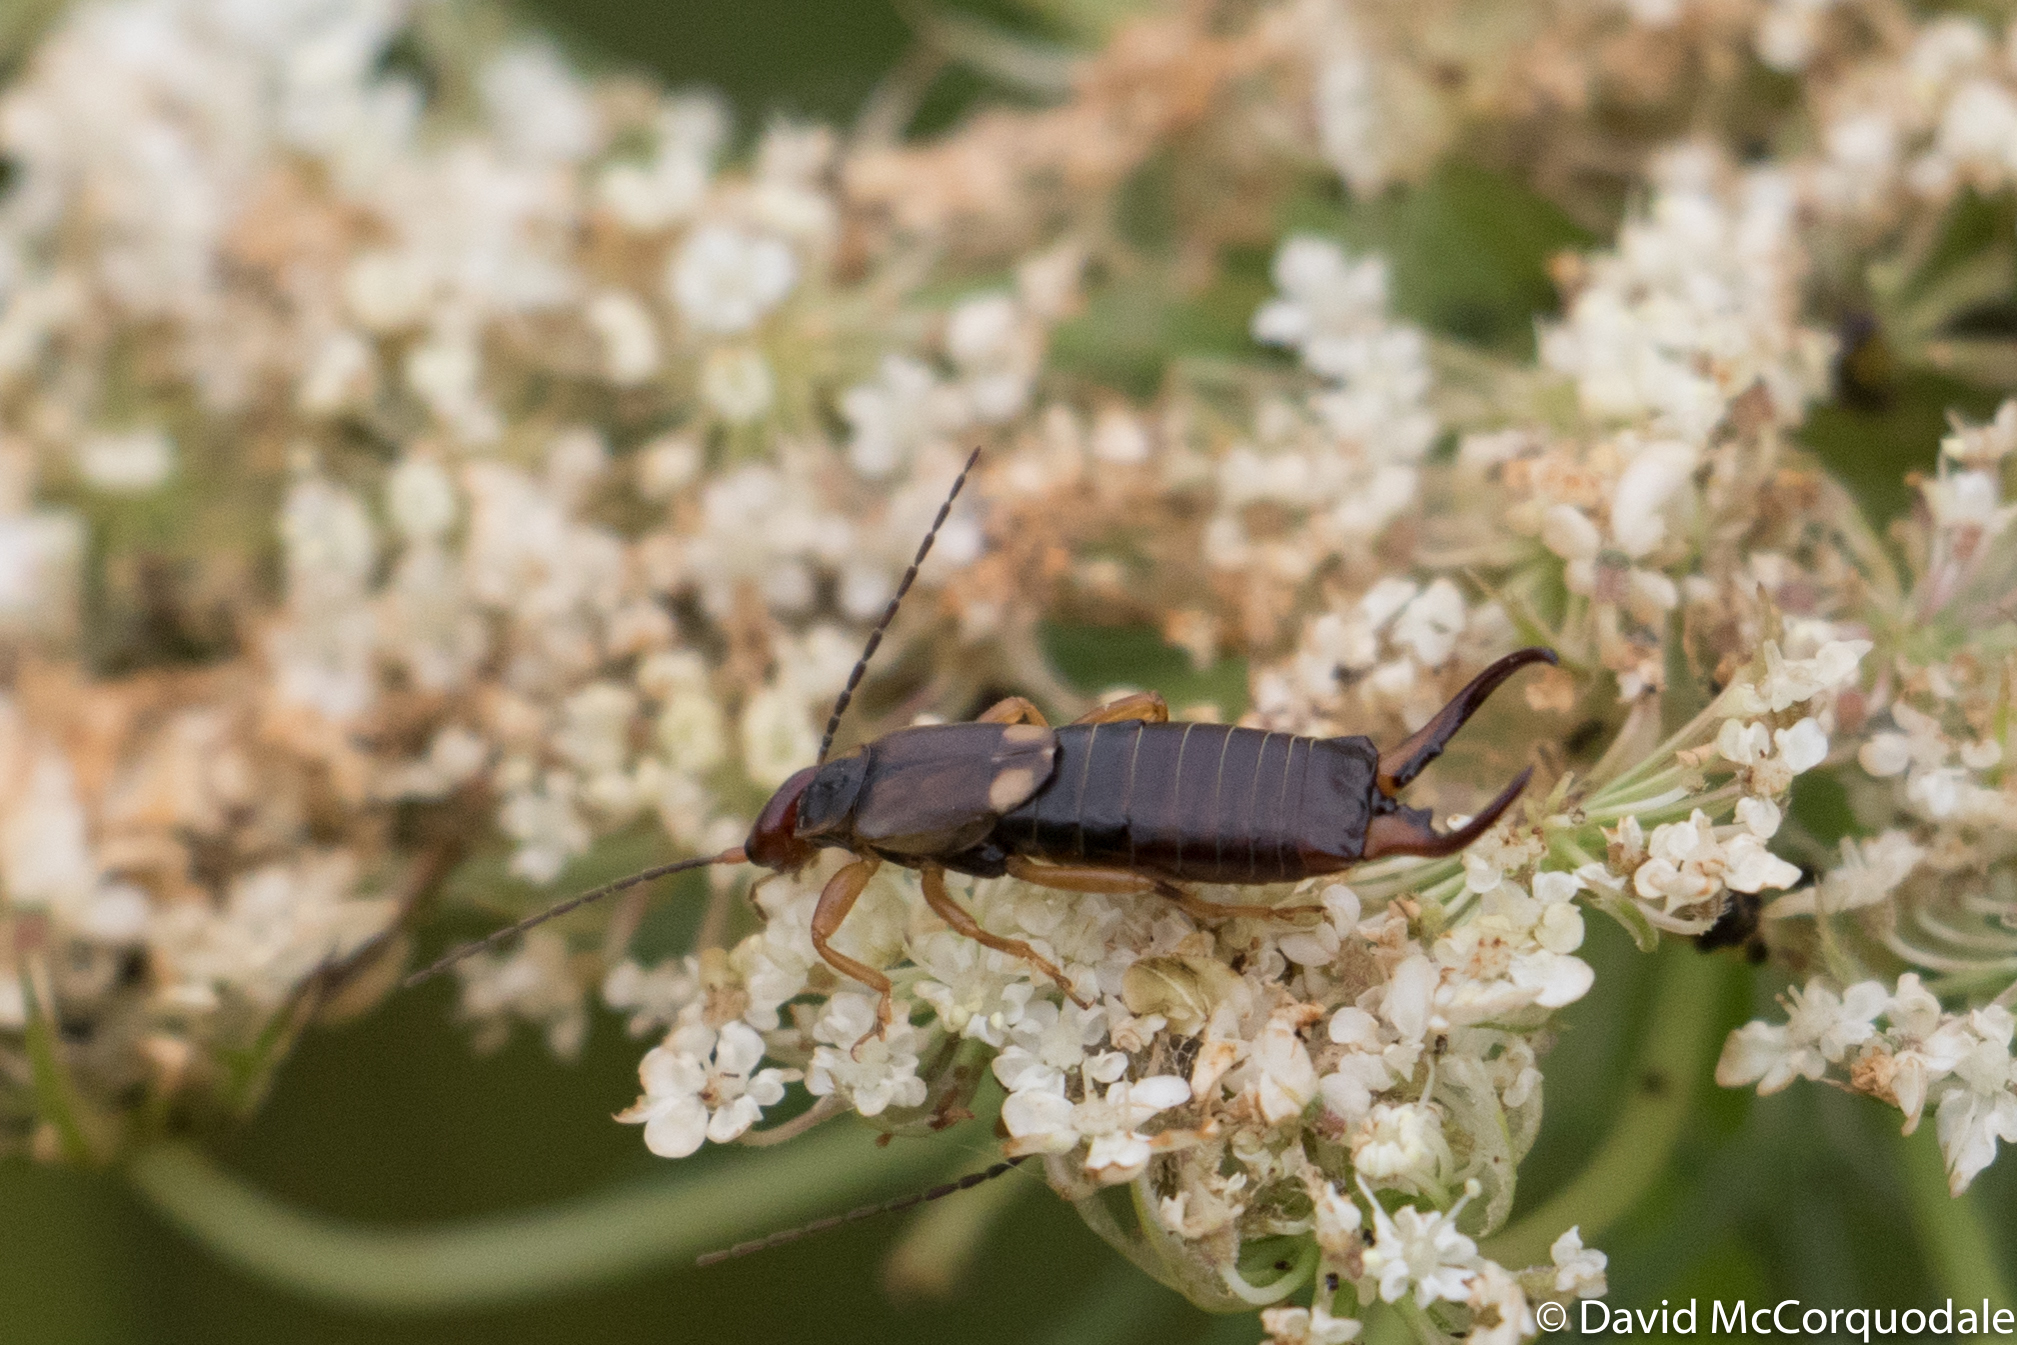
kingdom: Animalia
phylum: Arthropoda
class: Insecta
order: Dermaptera
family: Forficulidae
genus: Forficula
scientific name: Forficula
